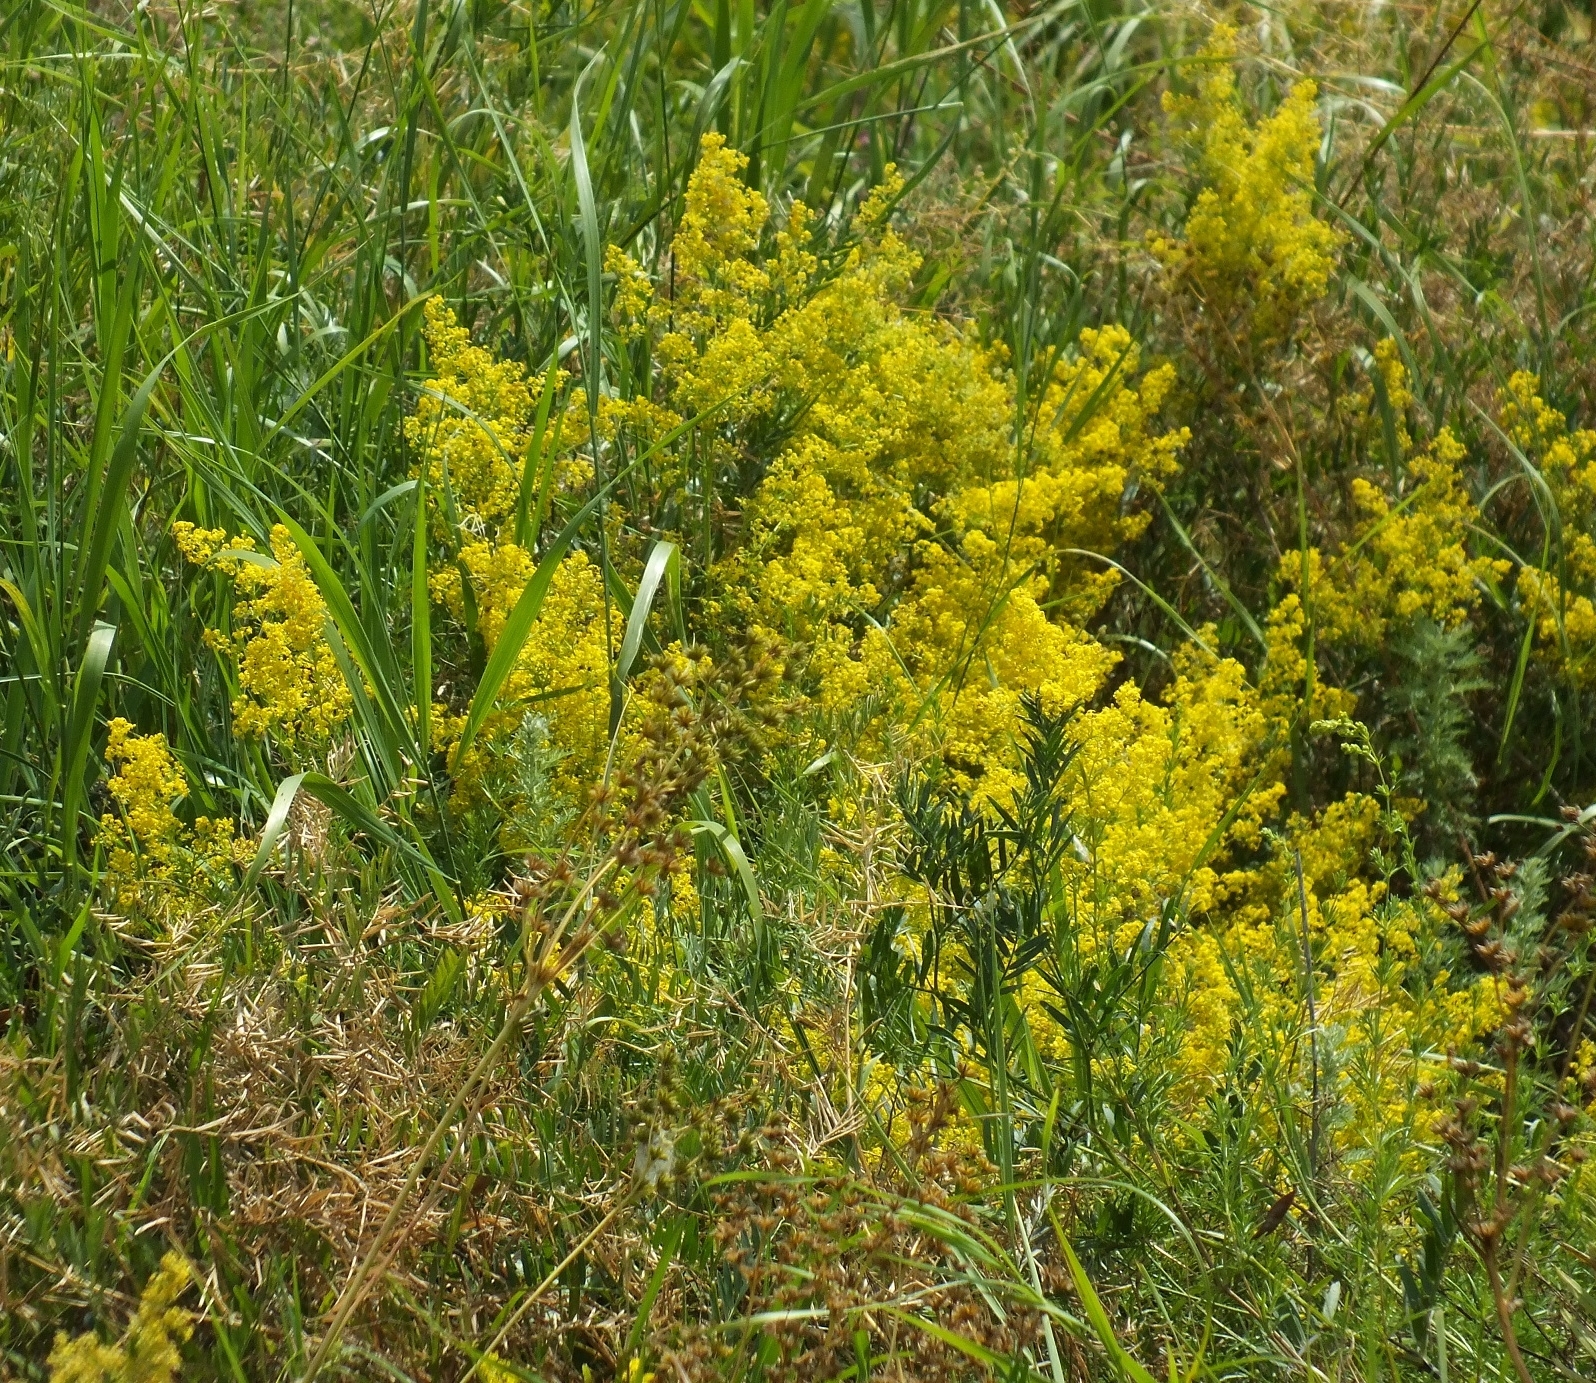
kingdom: Plantae
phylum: Tracheophyta
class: Magnoliopsida
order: Gentianales
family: Rubiaceae
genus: Galium
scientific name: Galium verum
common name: Lady's bedstraw
